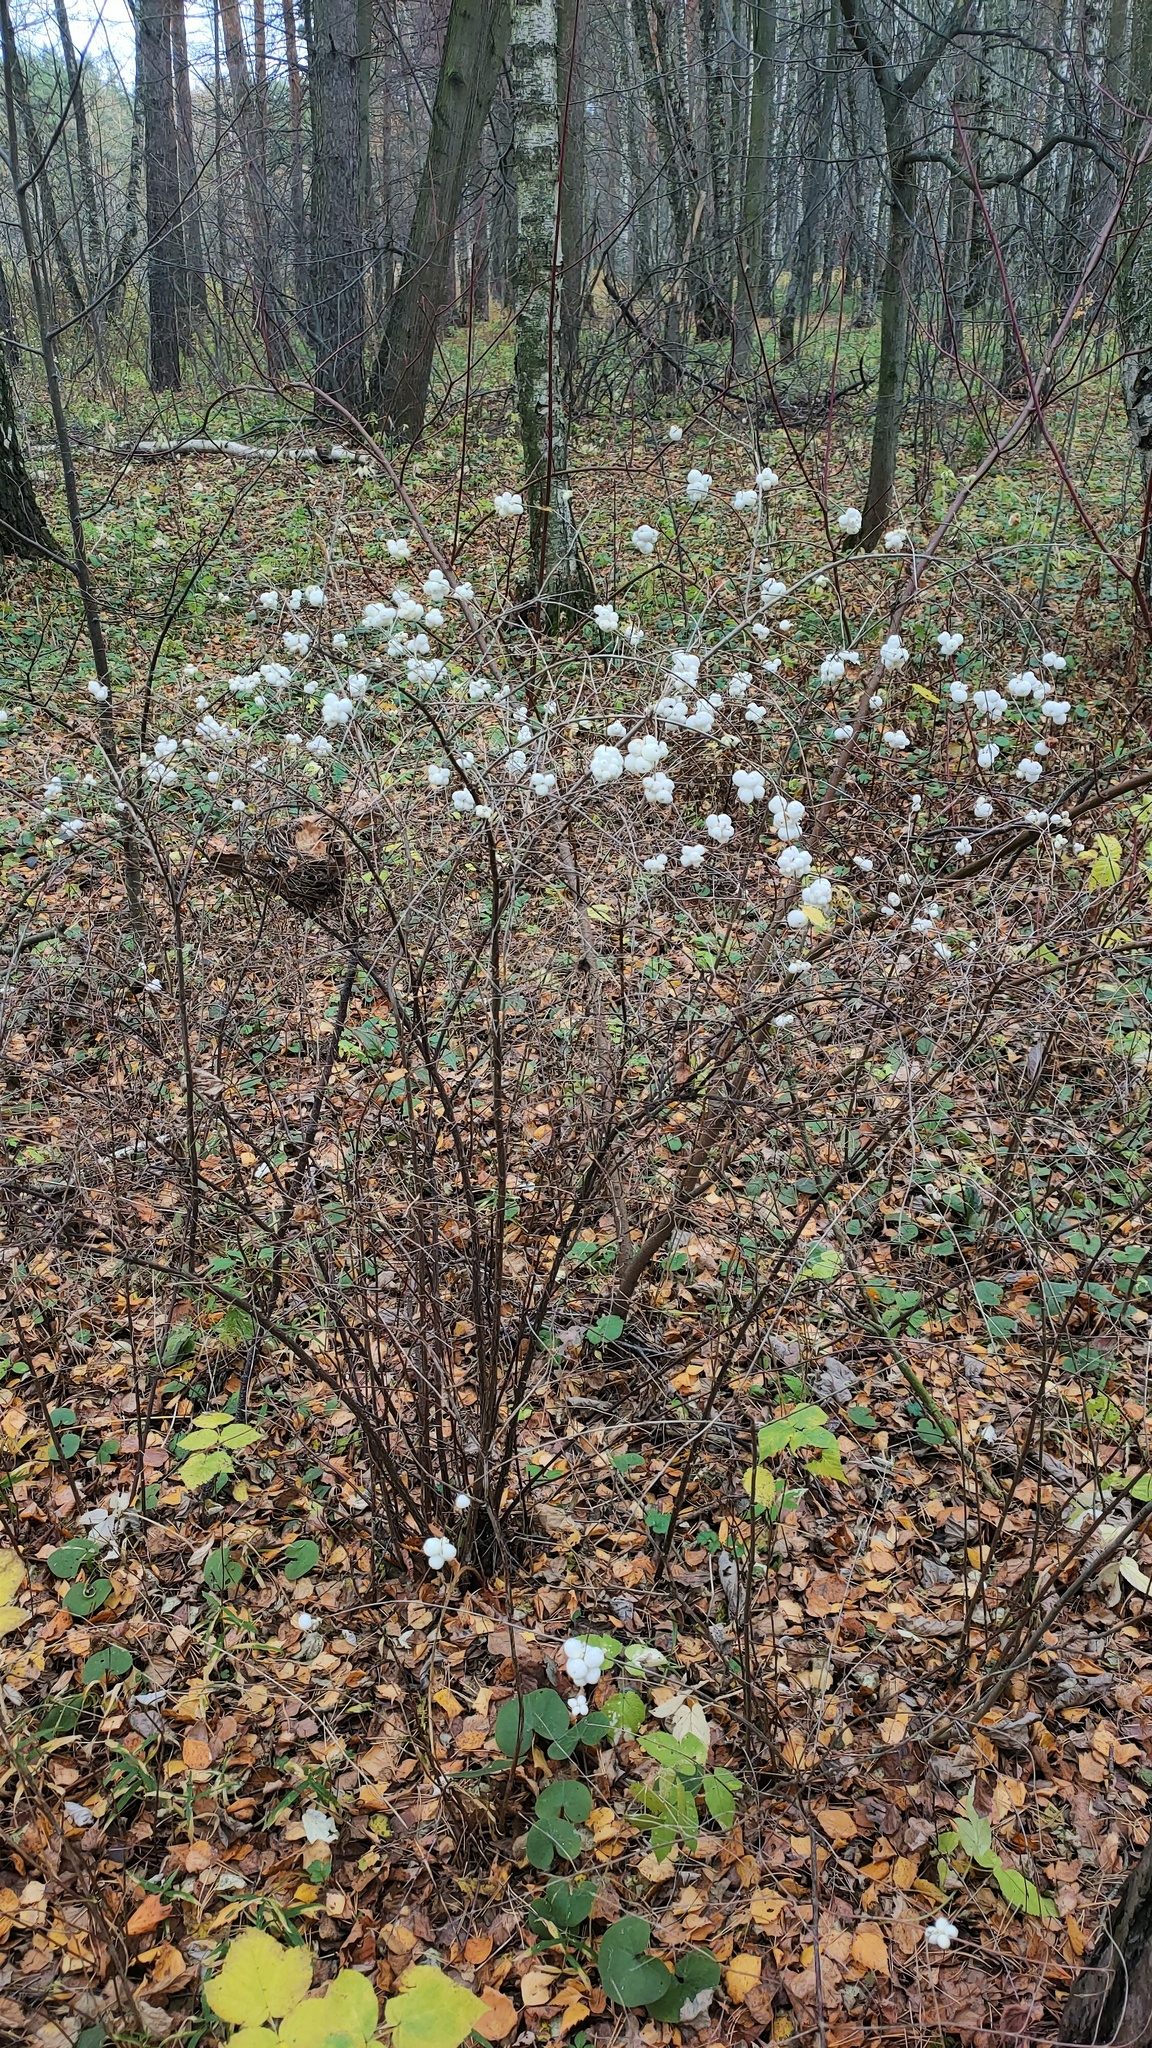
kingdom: Plantae
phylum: Tracheophyta
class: Magnoliopsida
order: Dipsacales
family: Caprifoliaceae
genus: Symphoricarpos
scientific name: Symphoricarpos albus
